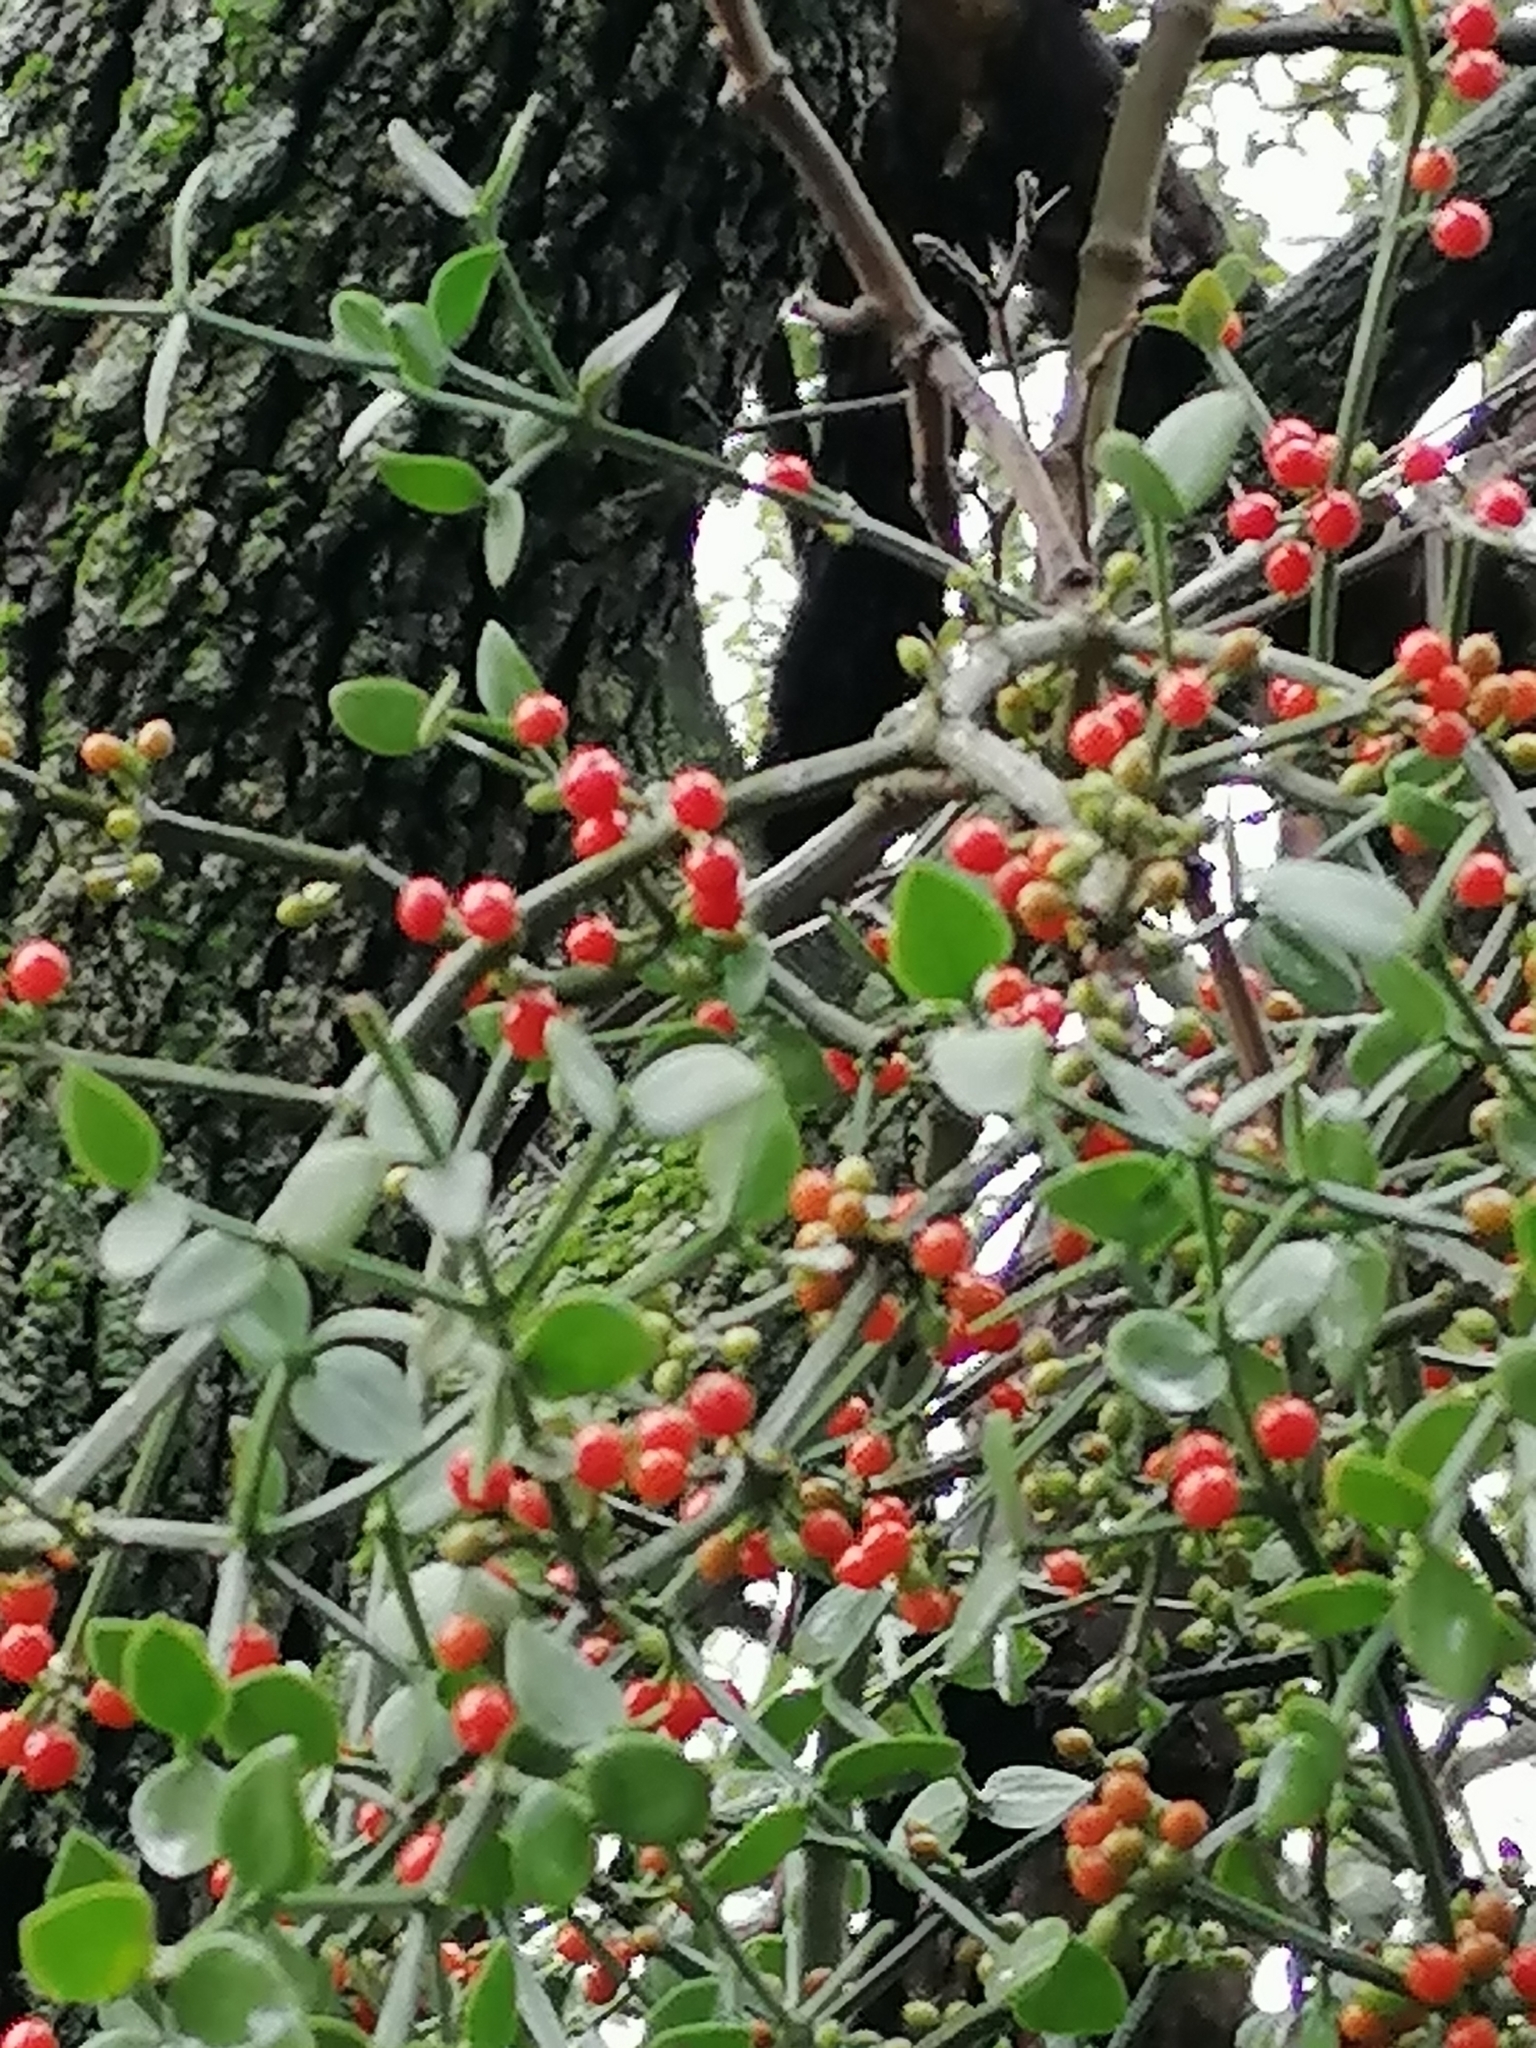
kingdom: Plantae
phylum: Tracheophyta
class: Magnoliopsida
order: Santalales
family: Viscaceae
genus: Viscum
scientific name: Viscum rotundifolium
